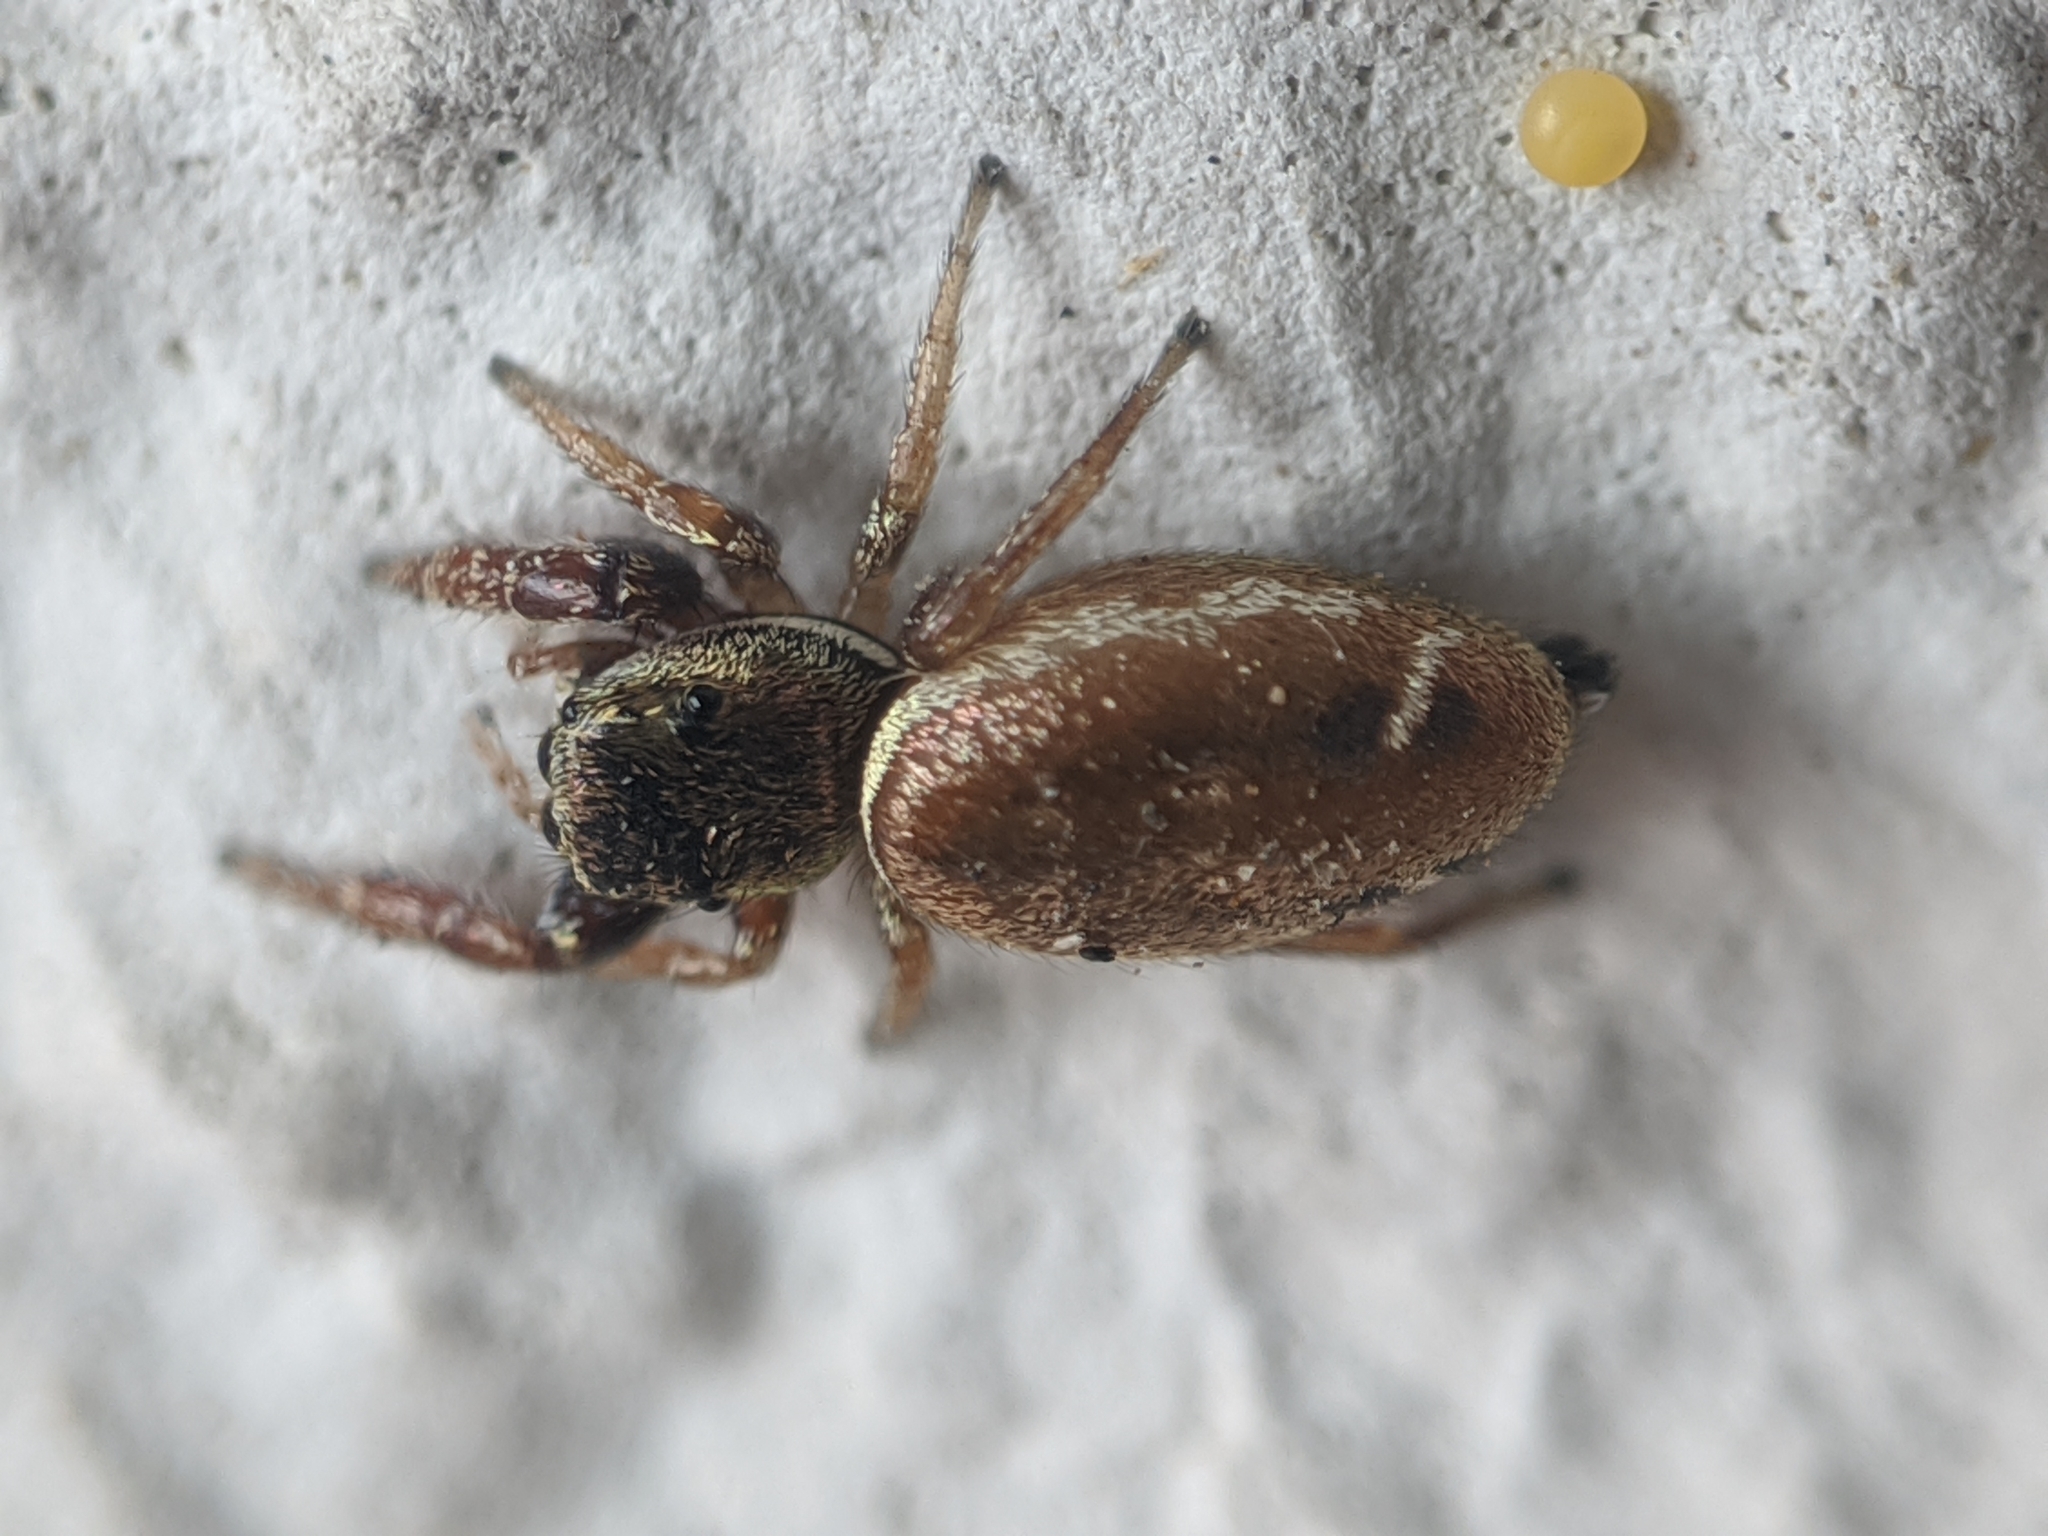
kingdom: Animalia
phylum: Arthropoda
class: Arachnida
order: Araneae
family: Salticidae
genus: Sassacus
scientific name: Sassacus vitis
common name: Jumping spiders
